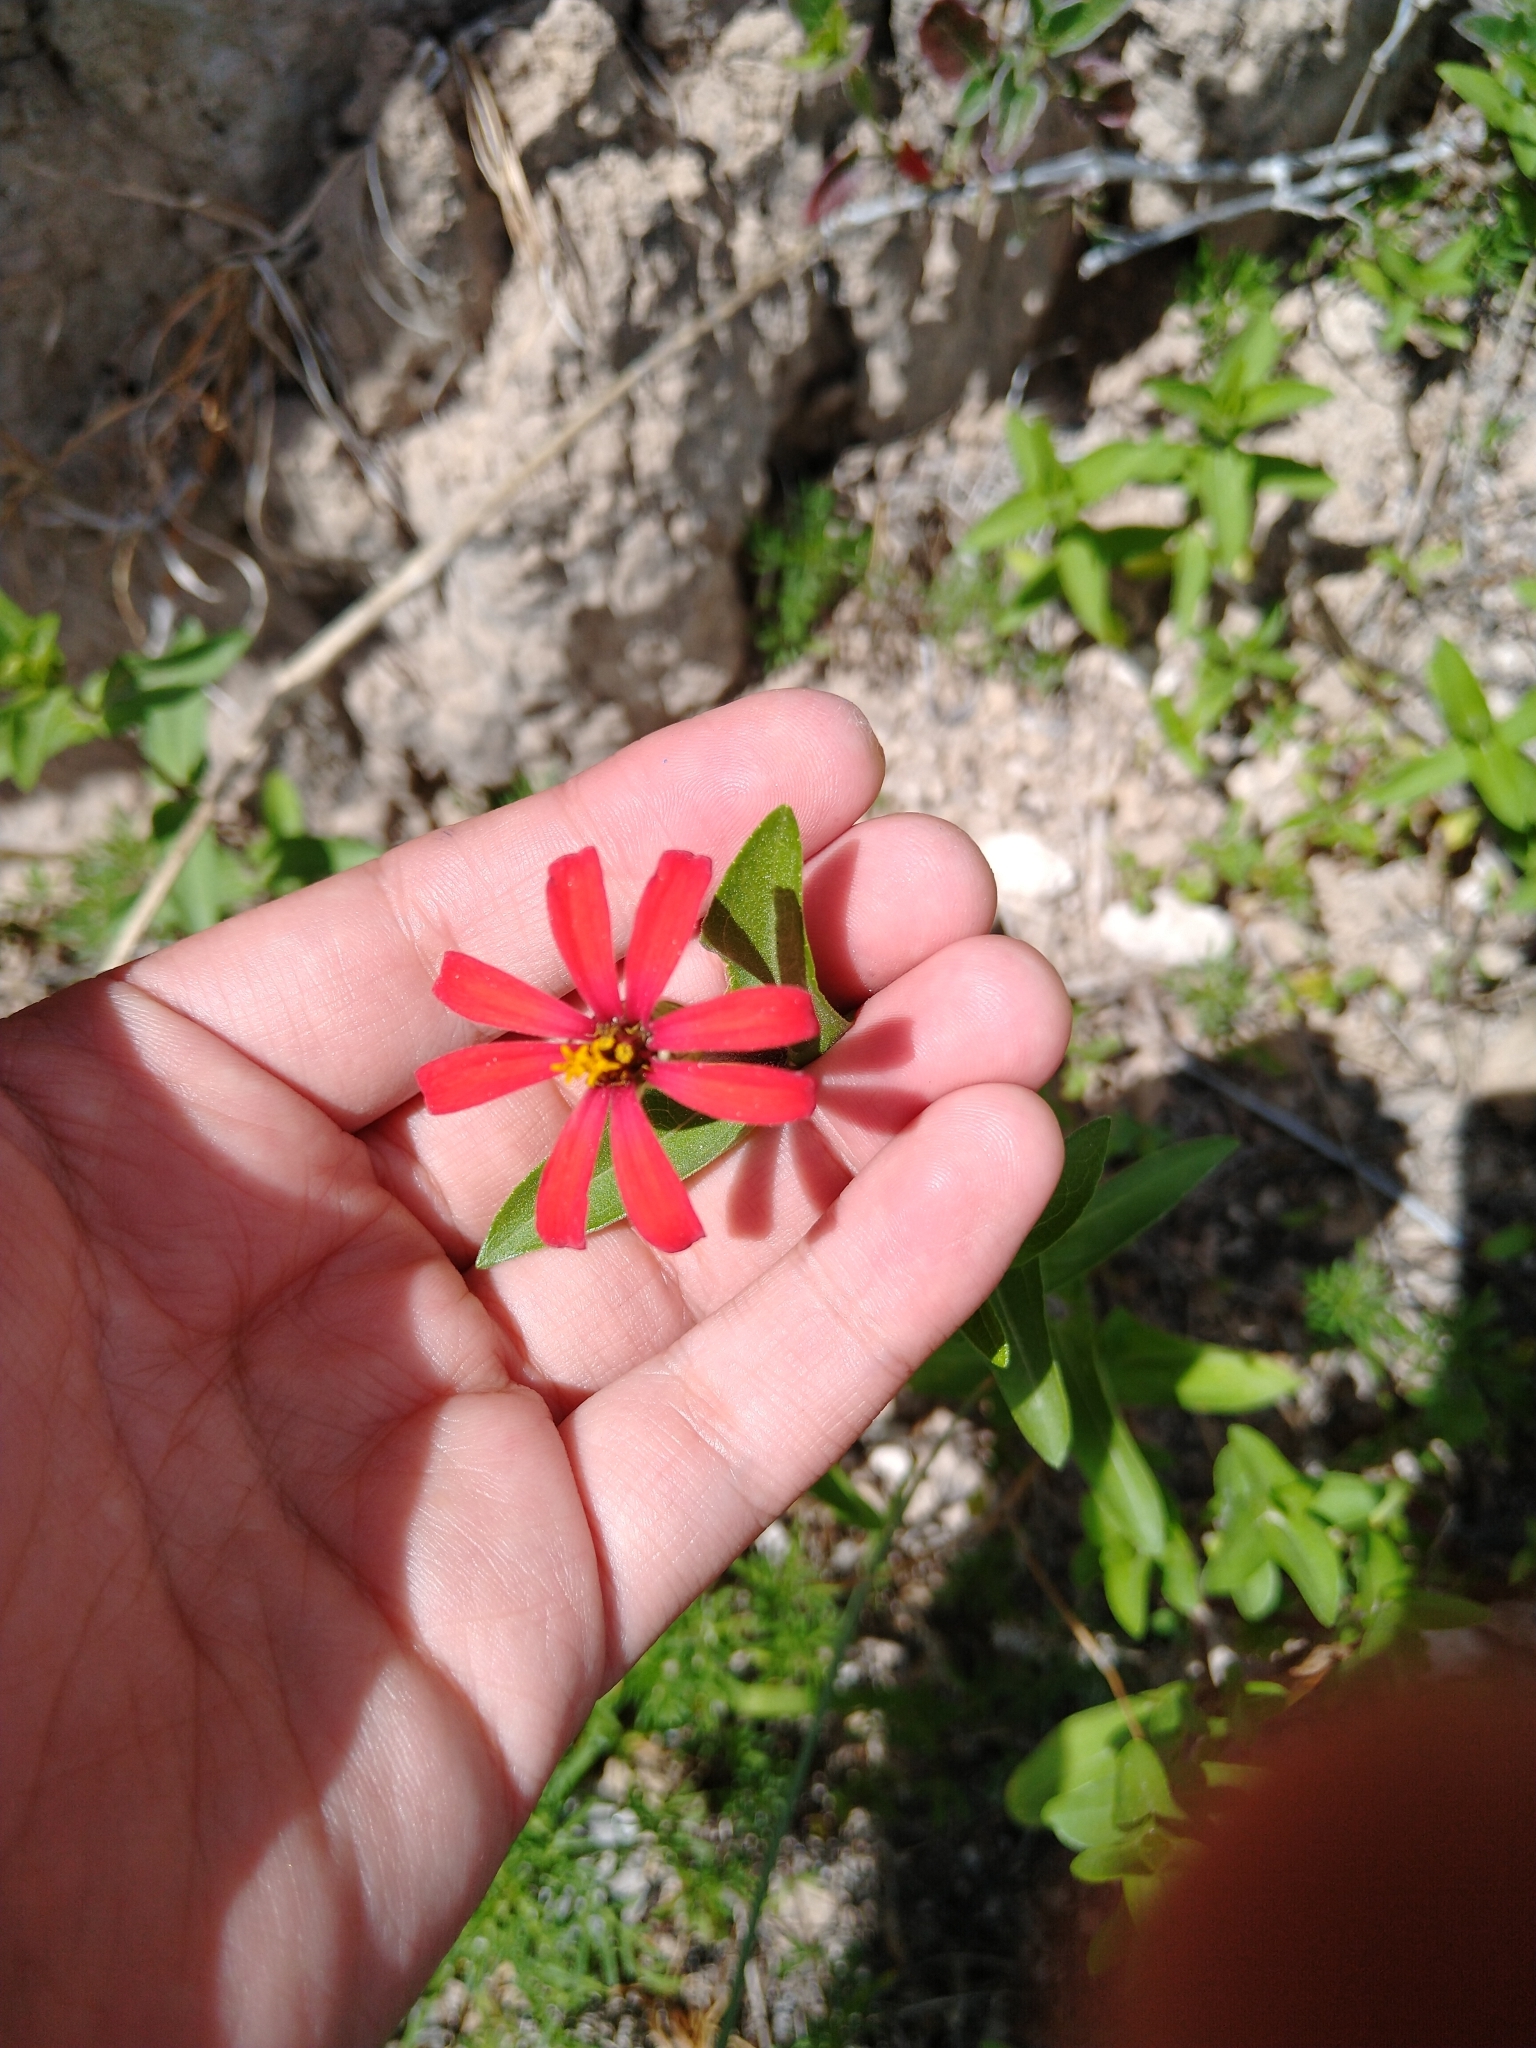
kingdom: Plantae
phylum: Tracheophyta
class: Magnoliopsida
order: Asterales
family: Asteraceae
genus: Zinnia
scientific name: Zinnia peruviana
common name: Peruvian zinnia
